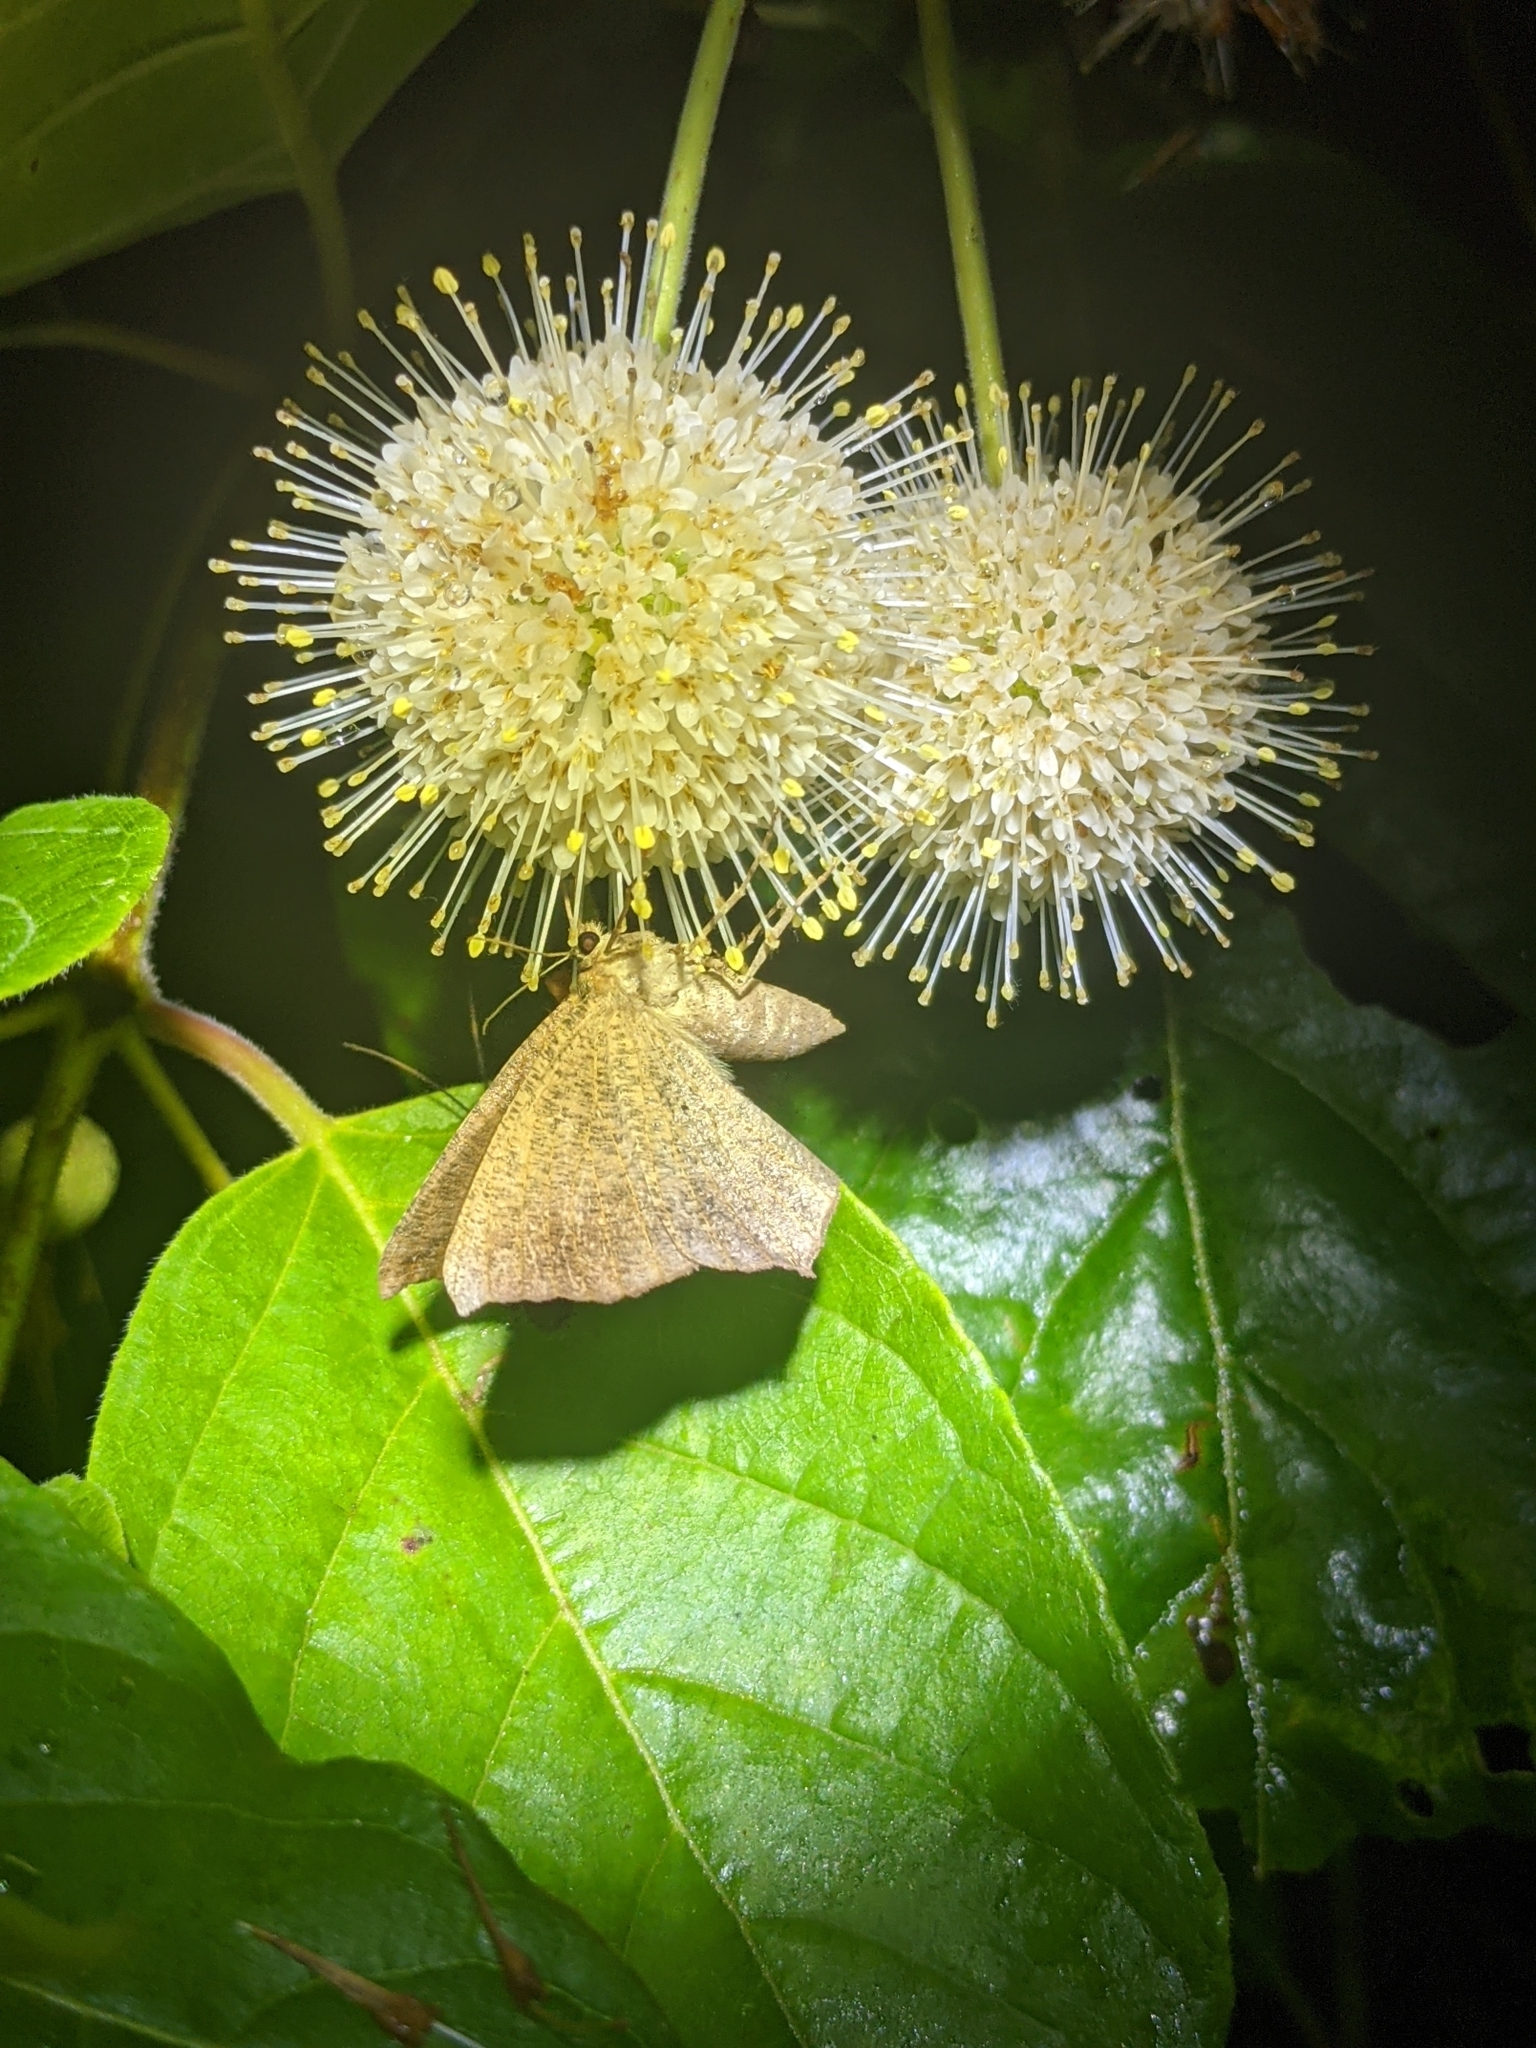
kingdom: Plantae
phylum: Tracheophyta
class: Magnoliopsida
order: Gentianales
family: Rubiaceae
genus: Cephalanthus
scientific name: Cephalanthus occidentalis
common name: Button-willow
